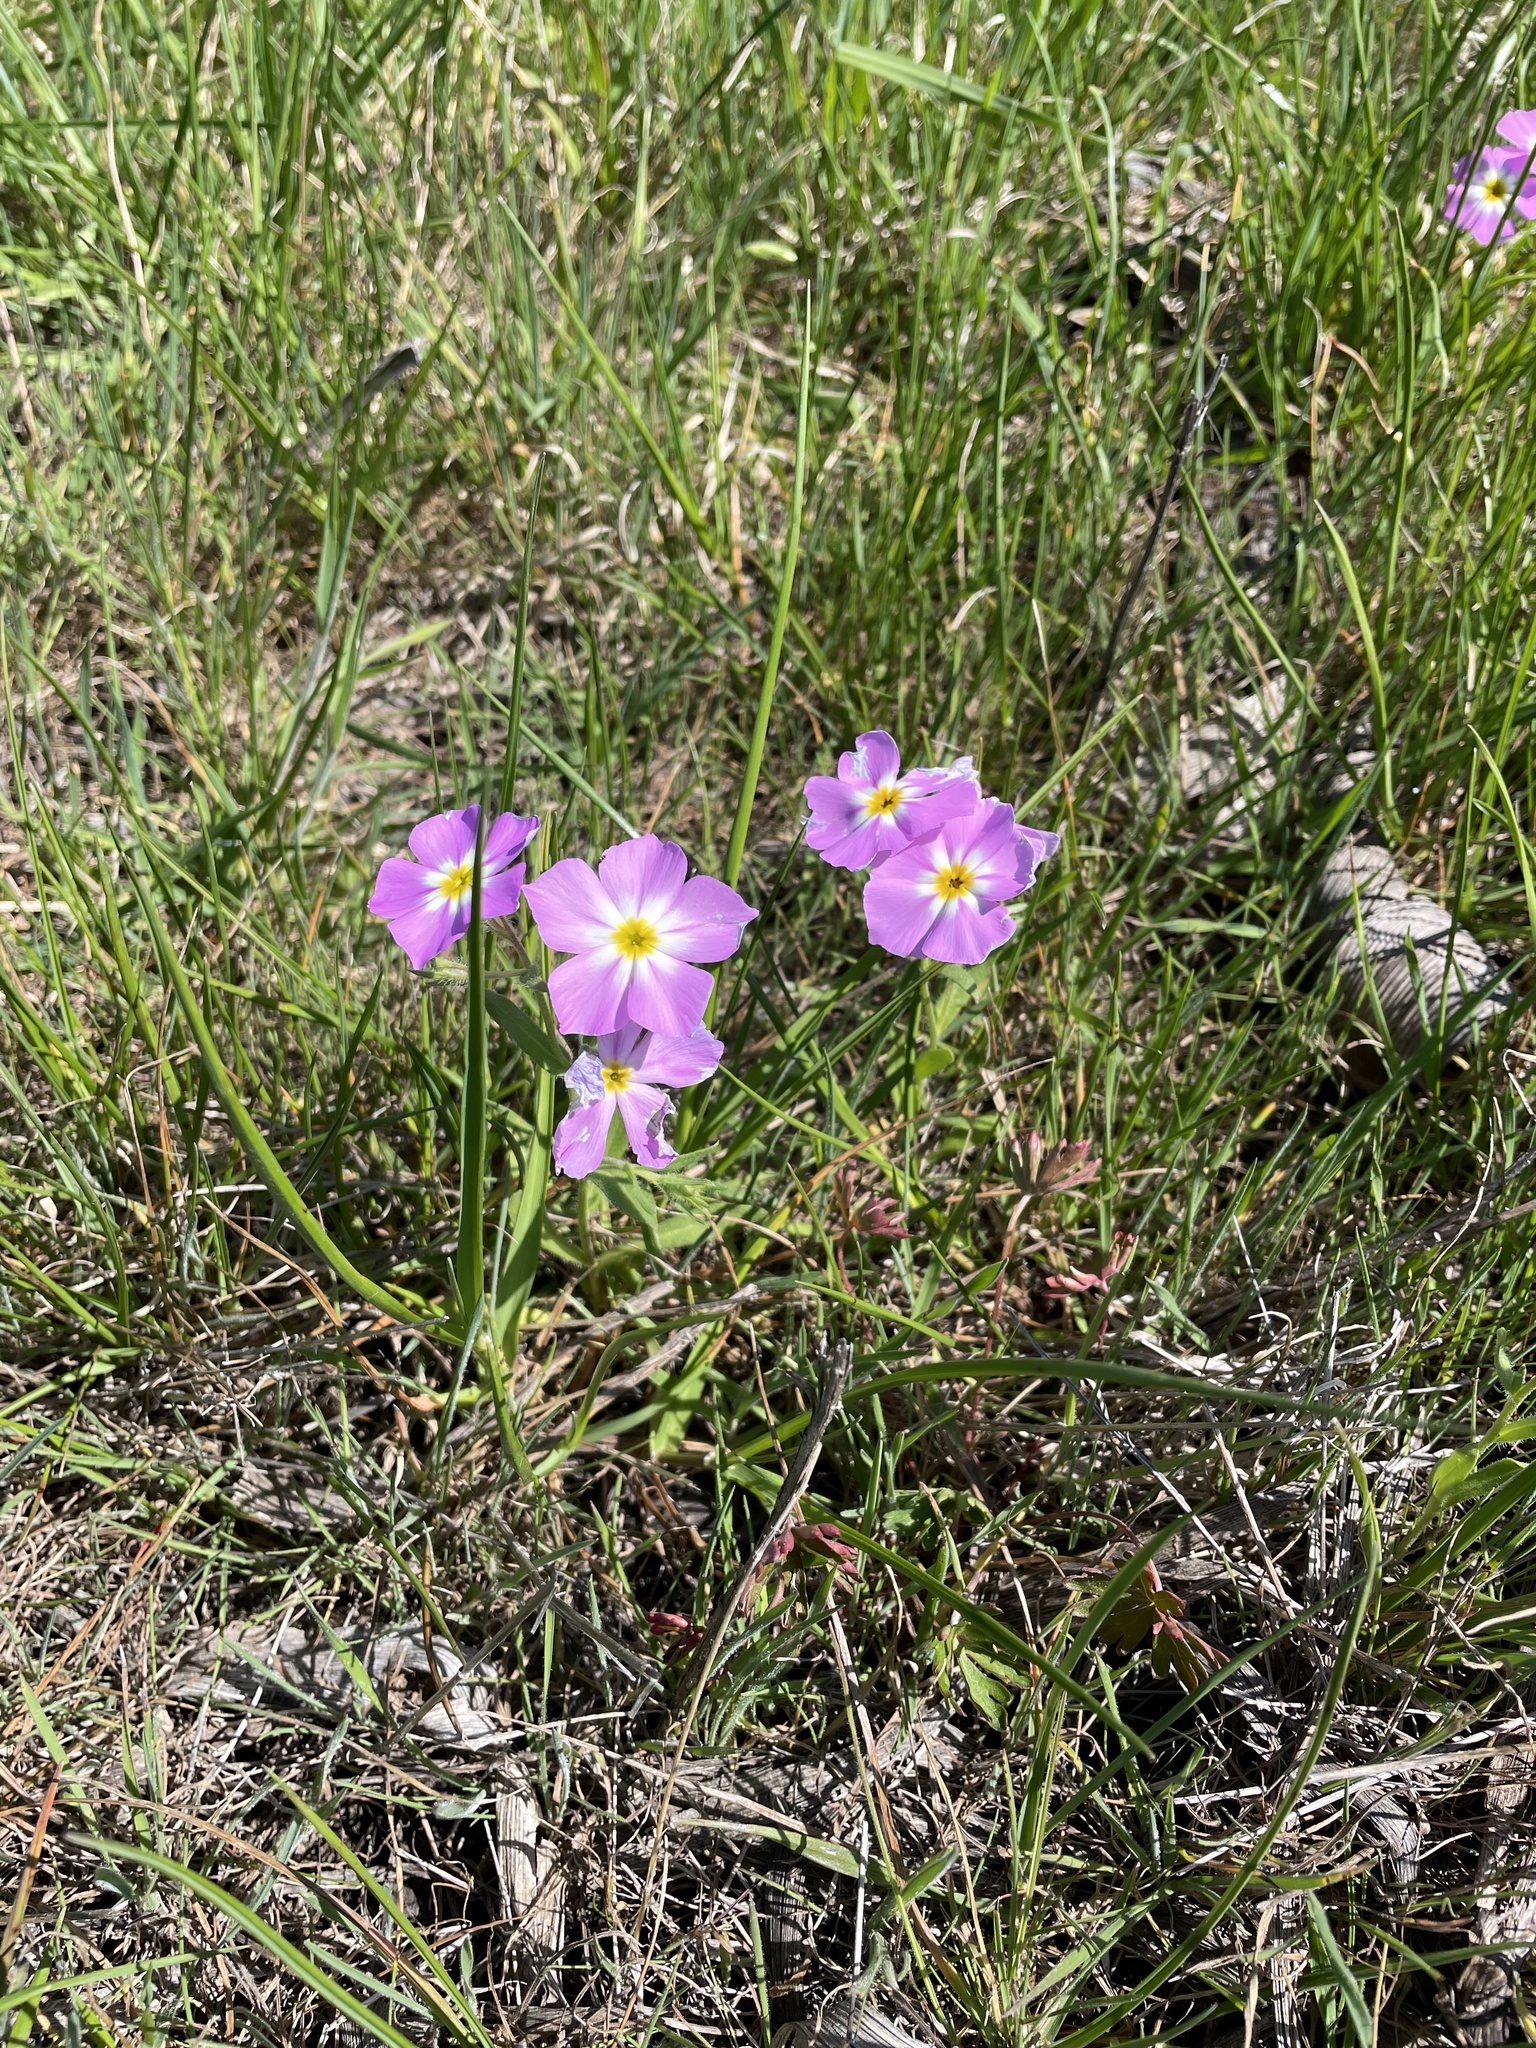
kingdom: Plantae
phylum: Tracheophyta
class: Magnoliopsida
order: Ericales
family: Polemoniaceae
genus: Phlox
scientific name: Phlox roemeriana
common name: Roemer's phlox
